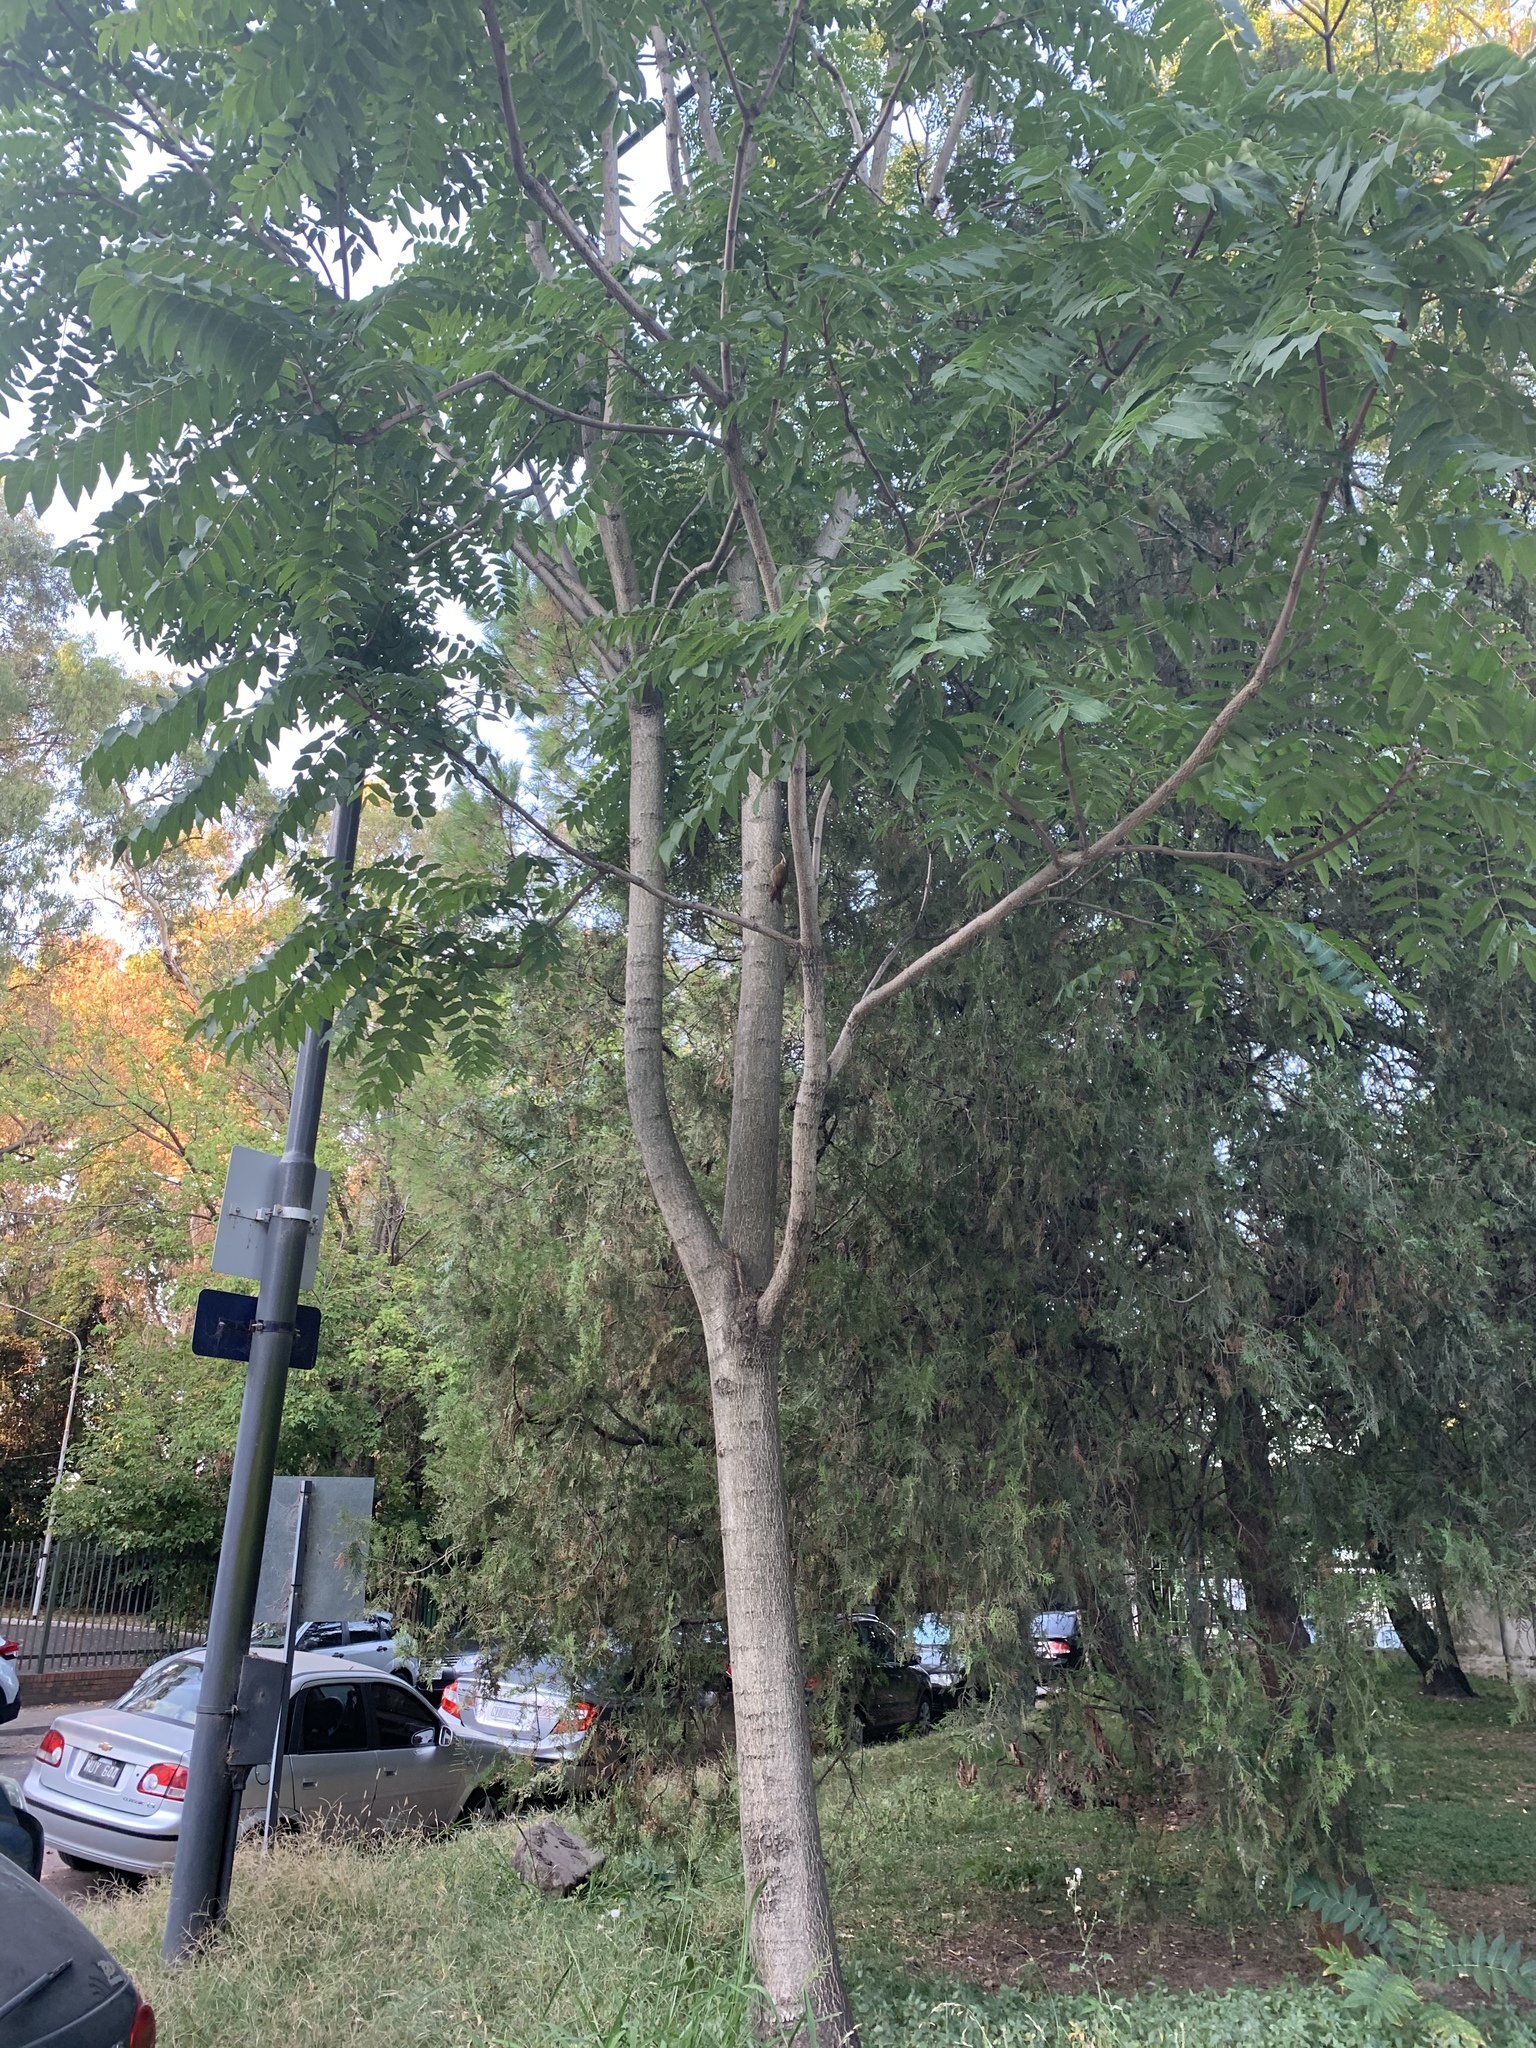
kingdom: Animalia
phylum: Chordata
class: Aves
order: Passeriformes
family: Furnariidae
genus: Lepidocolaptes
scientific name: Lepidocolaptes angustirostris
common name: Narrow-billed woodcreeper
